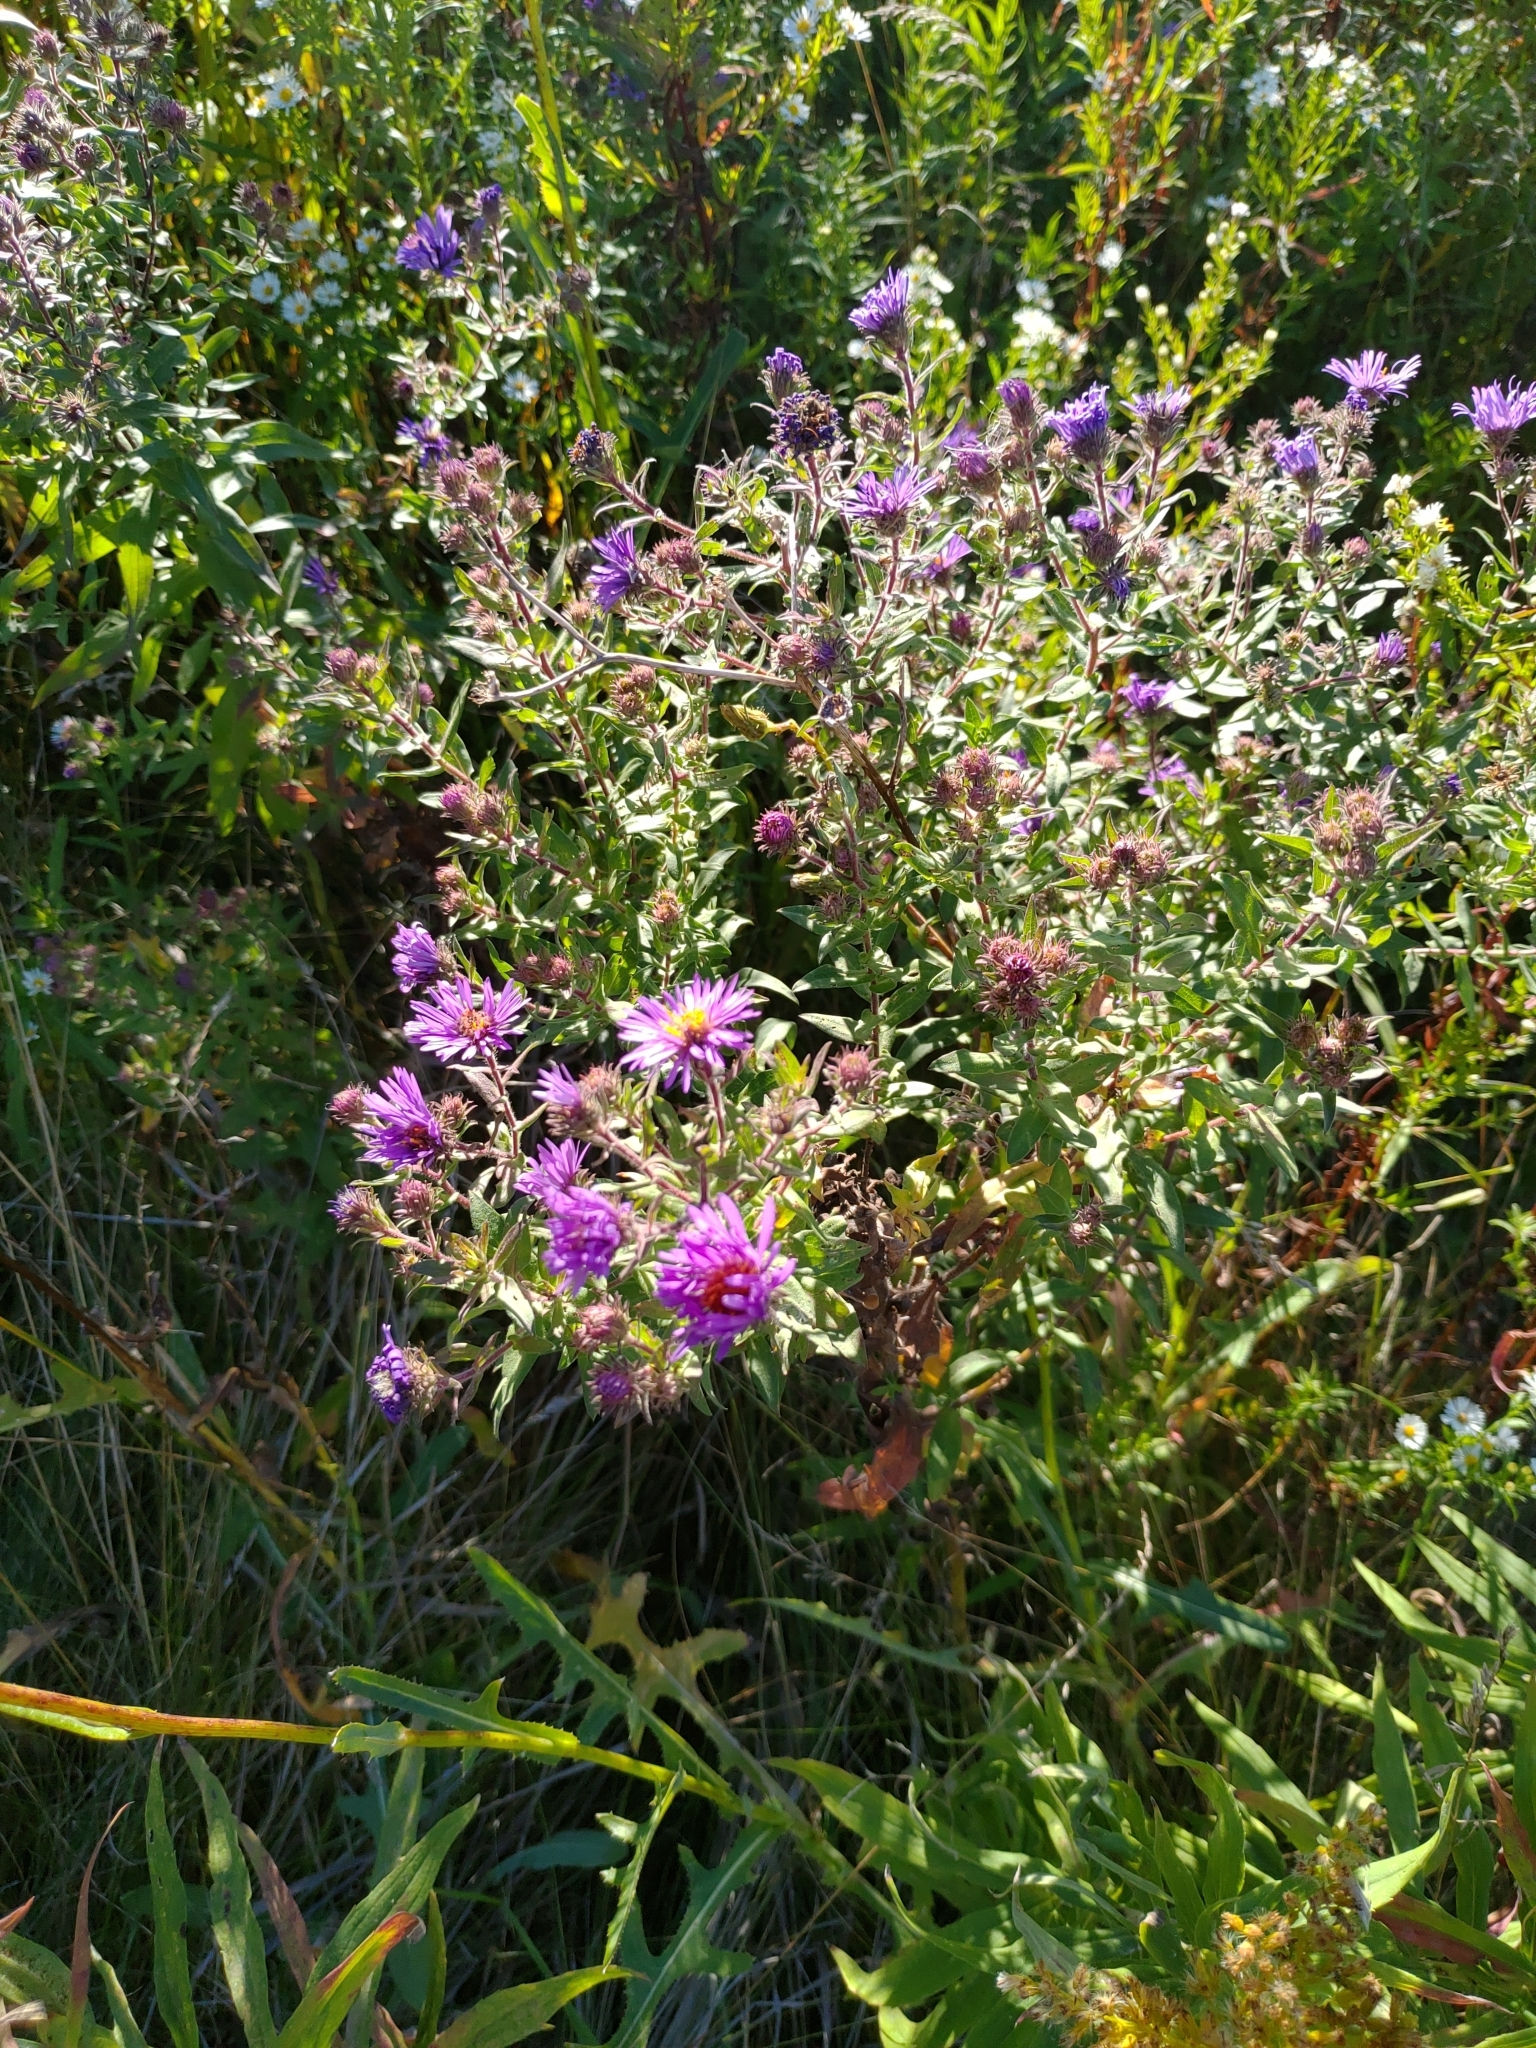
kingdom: Plantae
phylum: Tracheophyta
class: Magnoliopsida
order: Asterales
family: Asteraceae
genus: Symphyotrichum
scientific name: Symphyotrichum novae-angliae
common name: Michaelmas daisy
